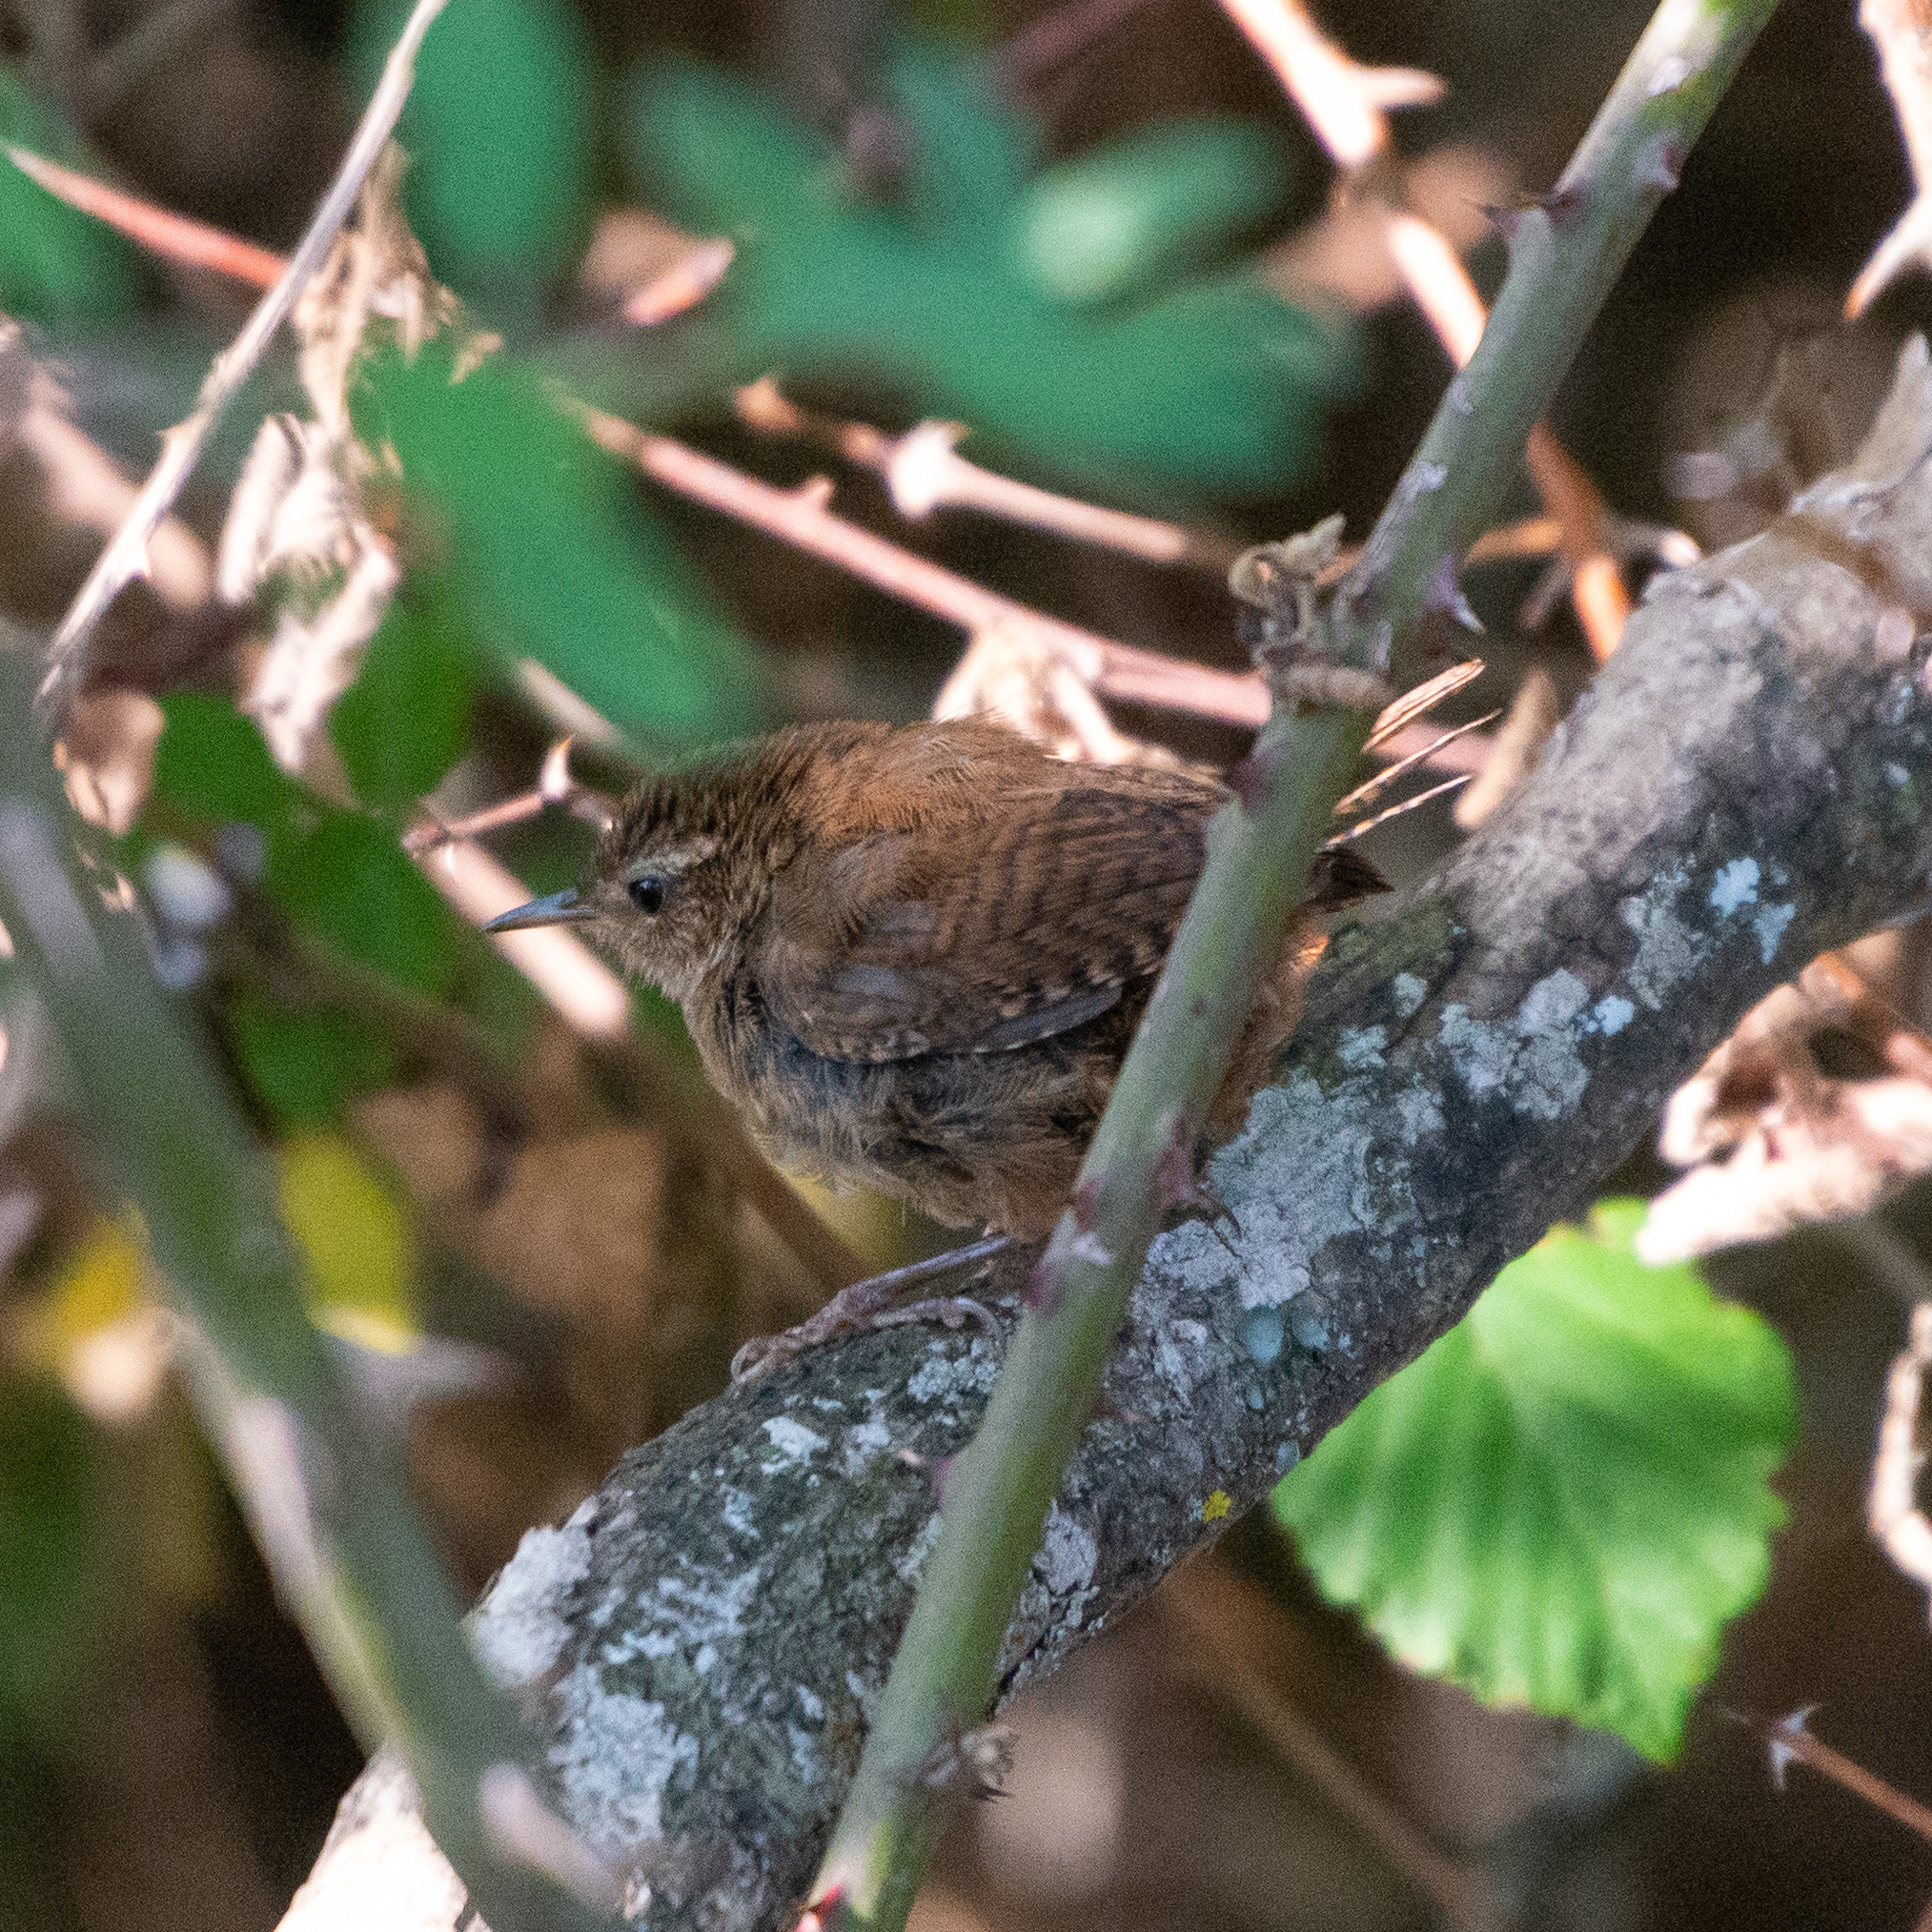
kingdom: Animalia
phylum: Chordata
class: Aves
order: Passeriformes
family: Troglodytidae
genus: Troglodytes
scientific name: Troglodytes troglodytes
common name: Eurasian wren
